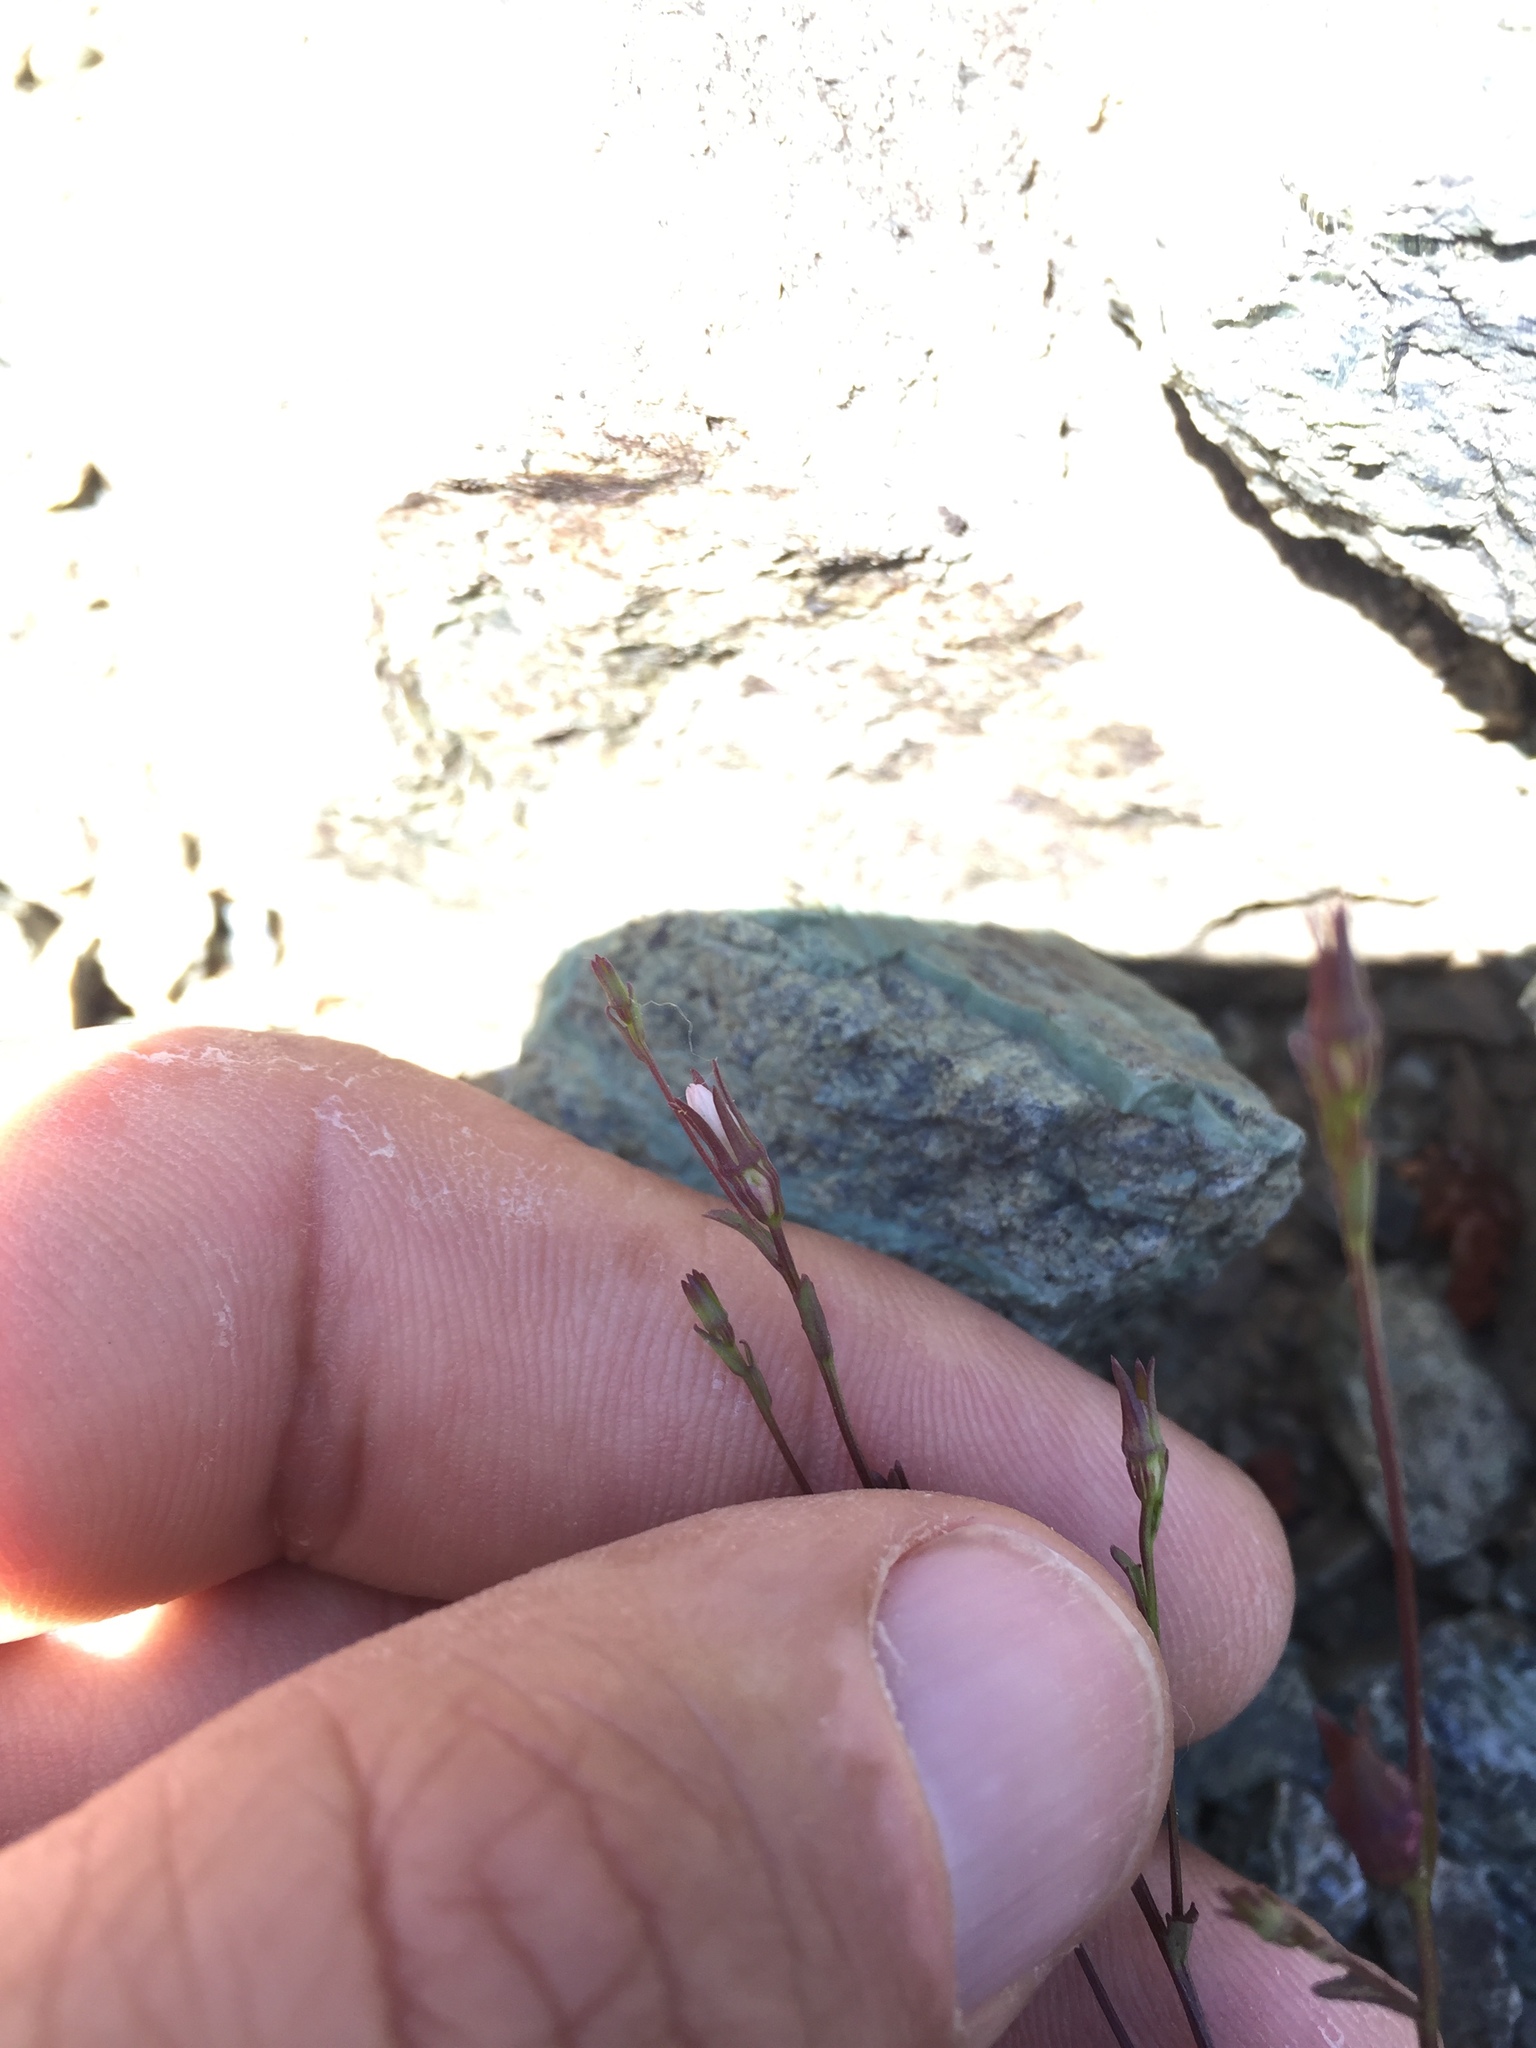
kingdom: Plantae
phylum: Tracheophyta
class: Magnoliopsida
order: Asterales
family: Campanulaceae
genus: Ravenella
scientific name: Ravenella griffinii
